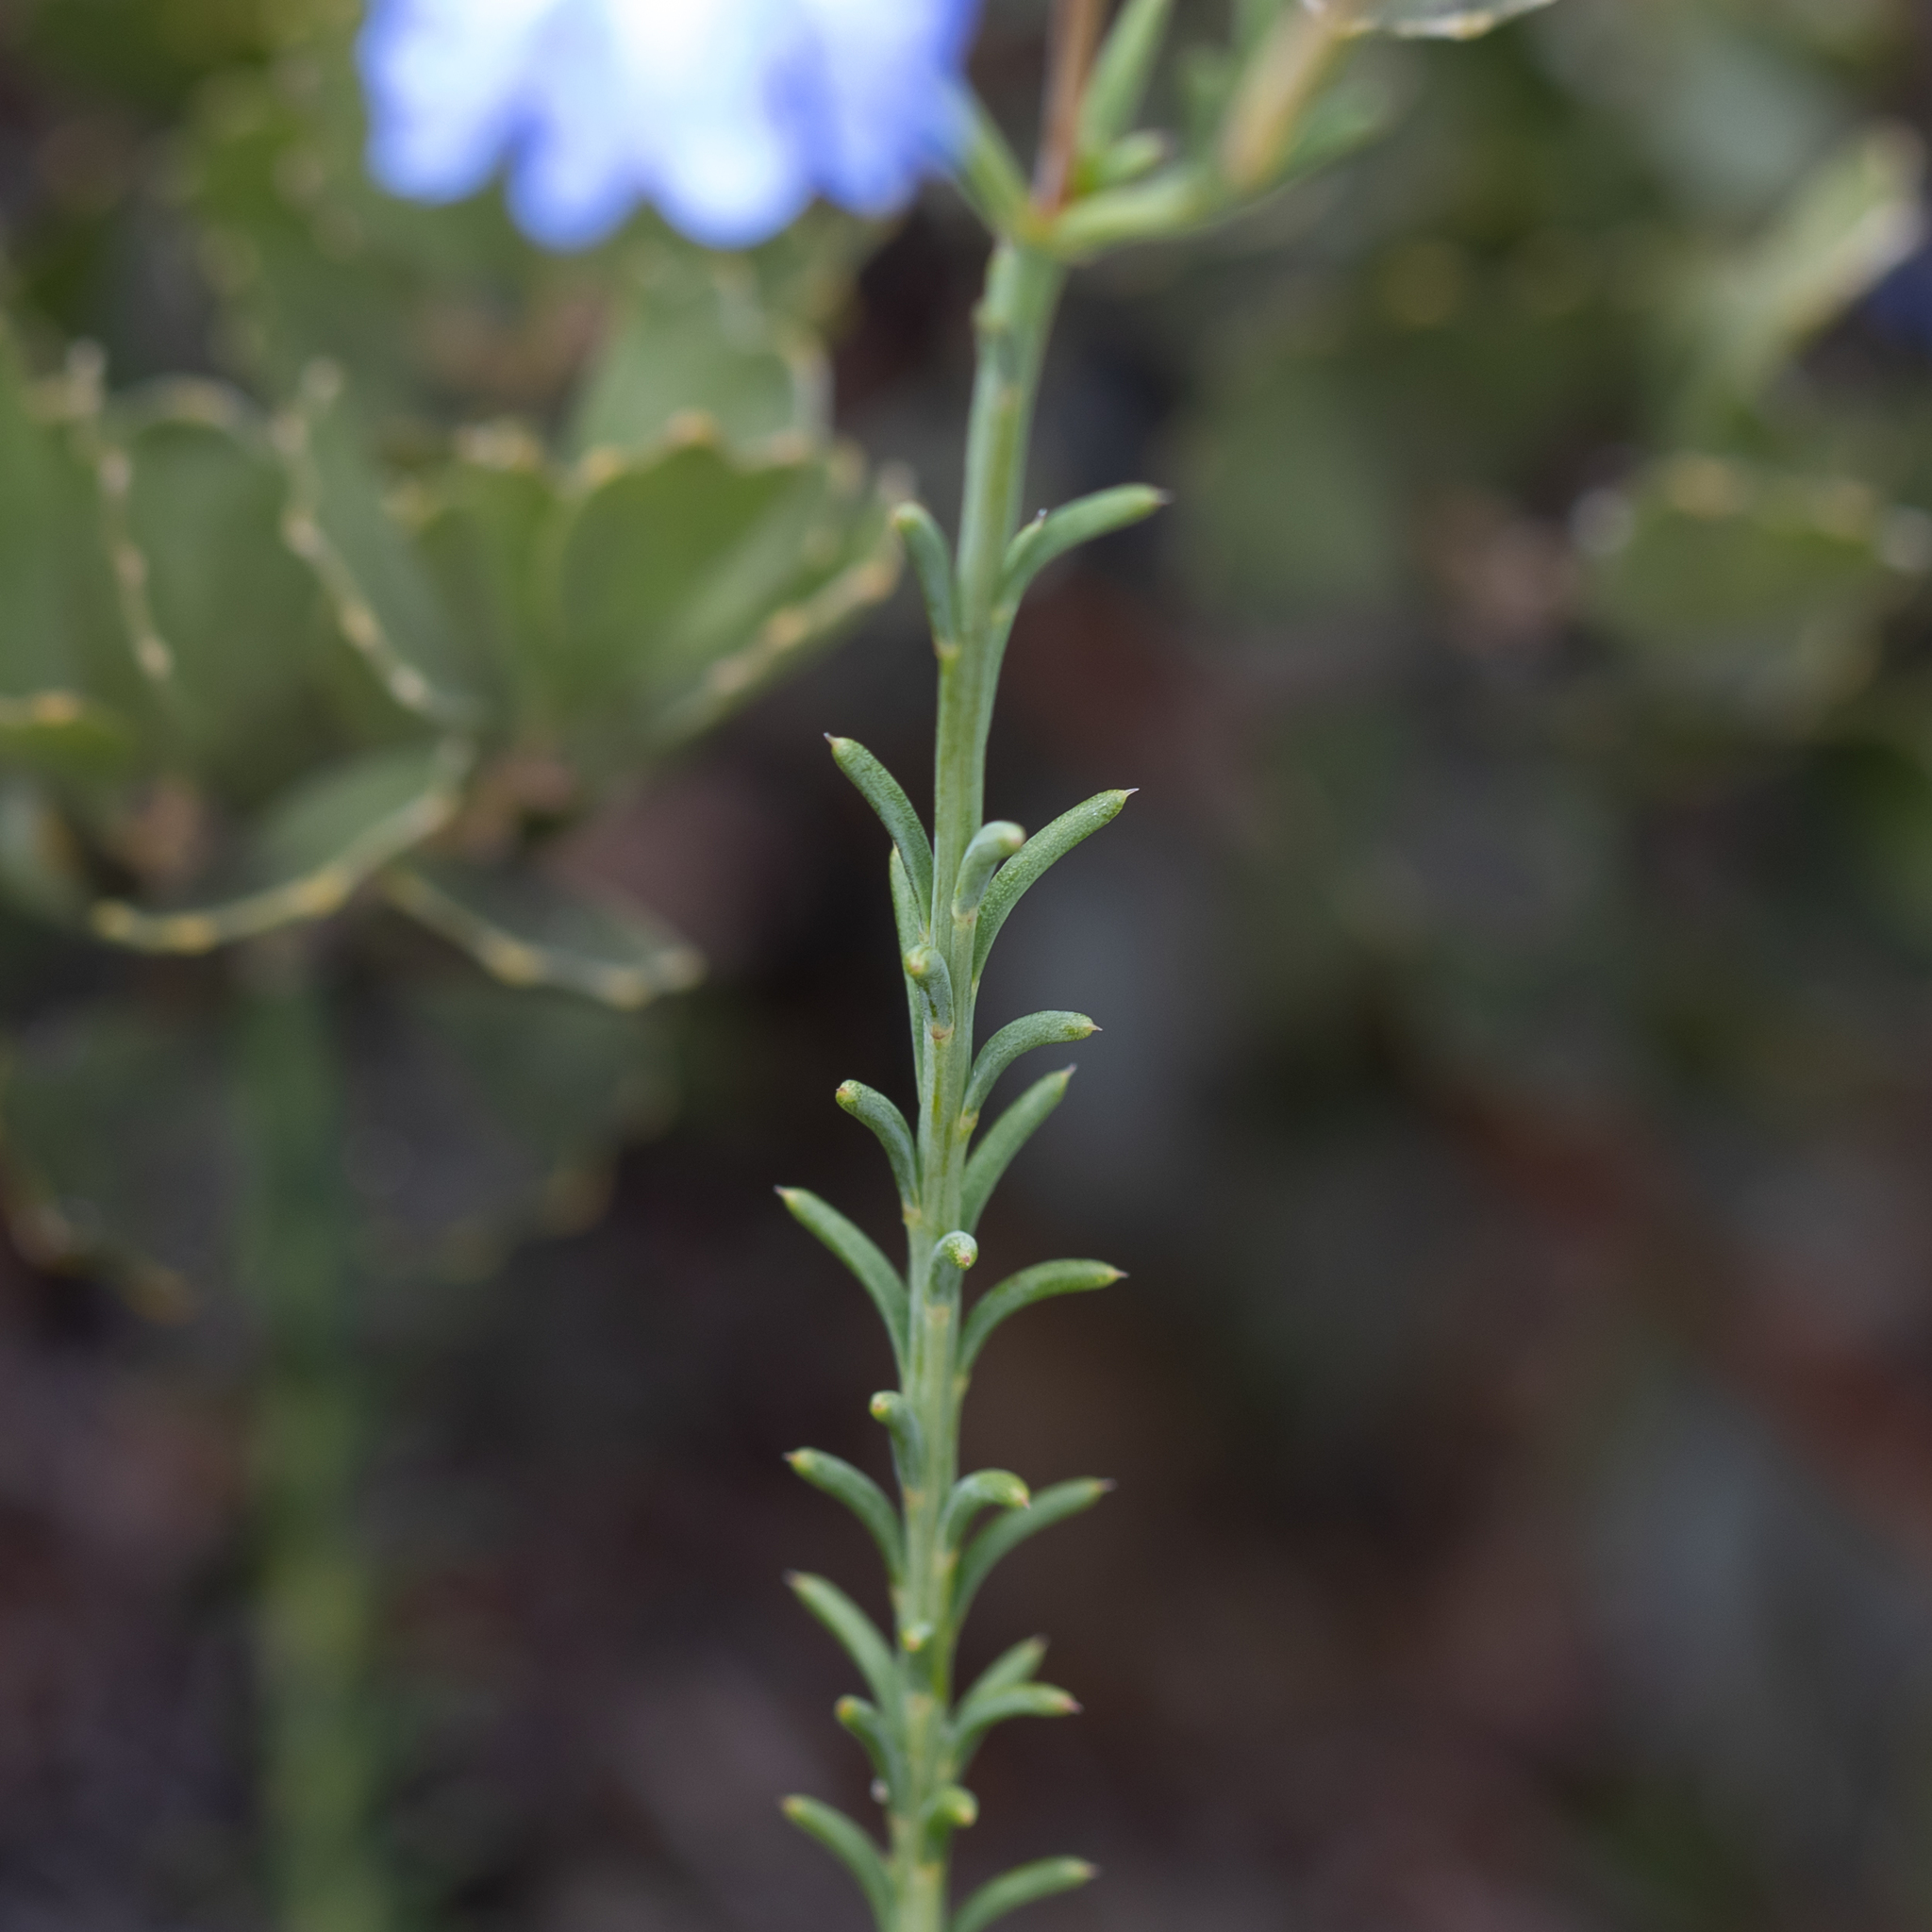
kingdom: Plantae
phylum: Tracheophyta
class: Magnoliopsida
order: Asterales
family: Goodeniaceae
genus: Lechenaultia
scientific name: Lechenaultia heteromera
